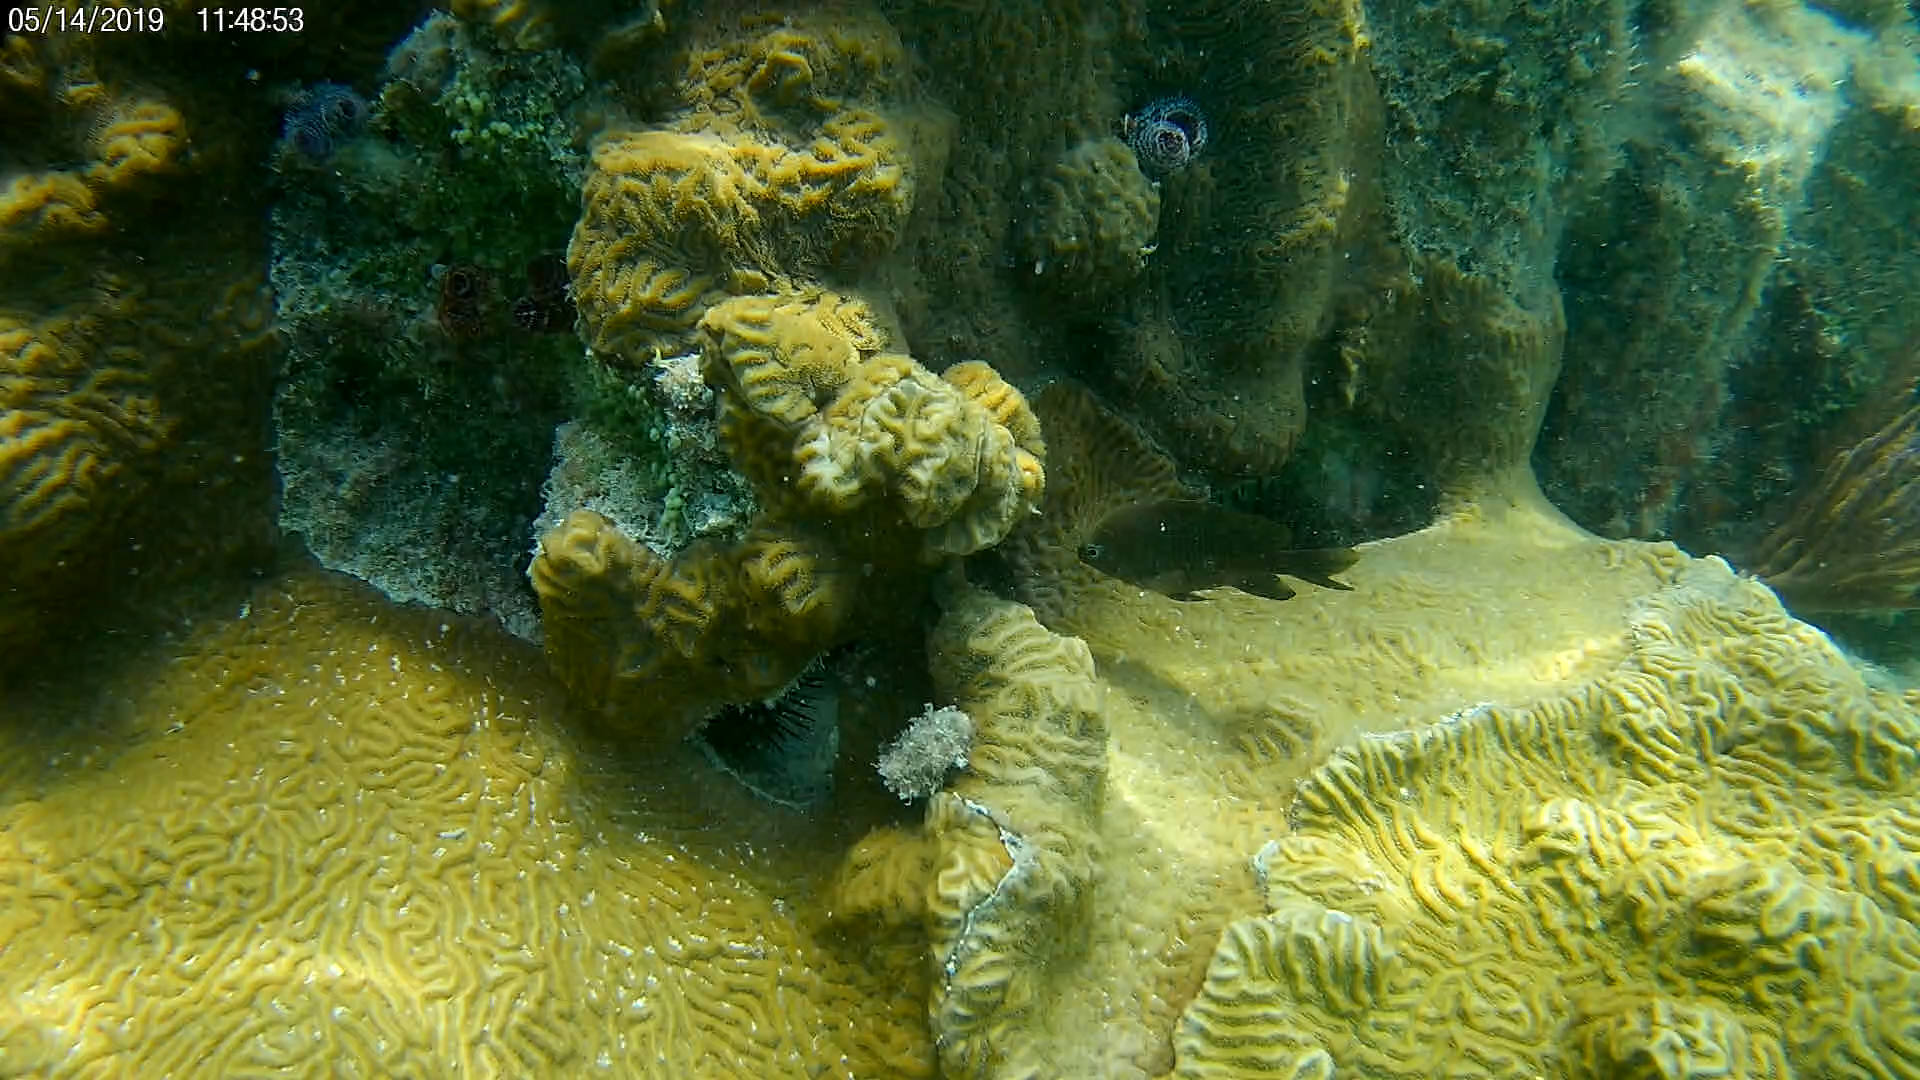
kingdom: Animalia
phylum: Chordata
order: Perciformes
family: Pomacentridae
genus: Stegastes
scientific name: Stegastes adustus
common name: Dusky damselfish
